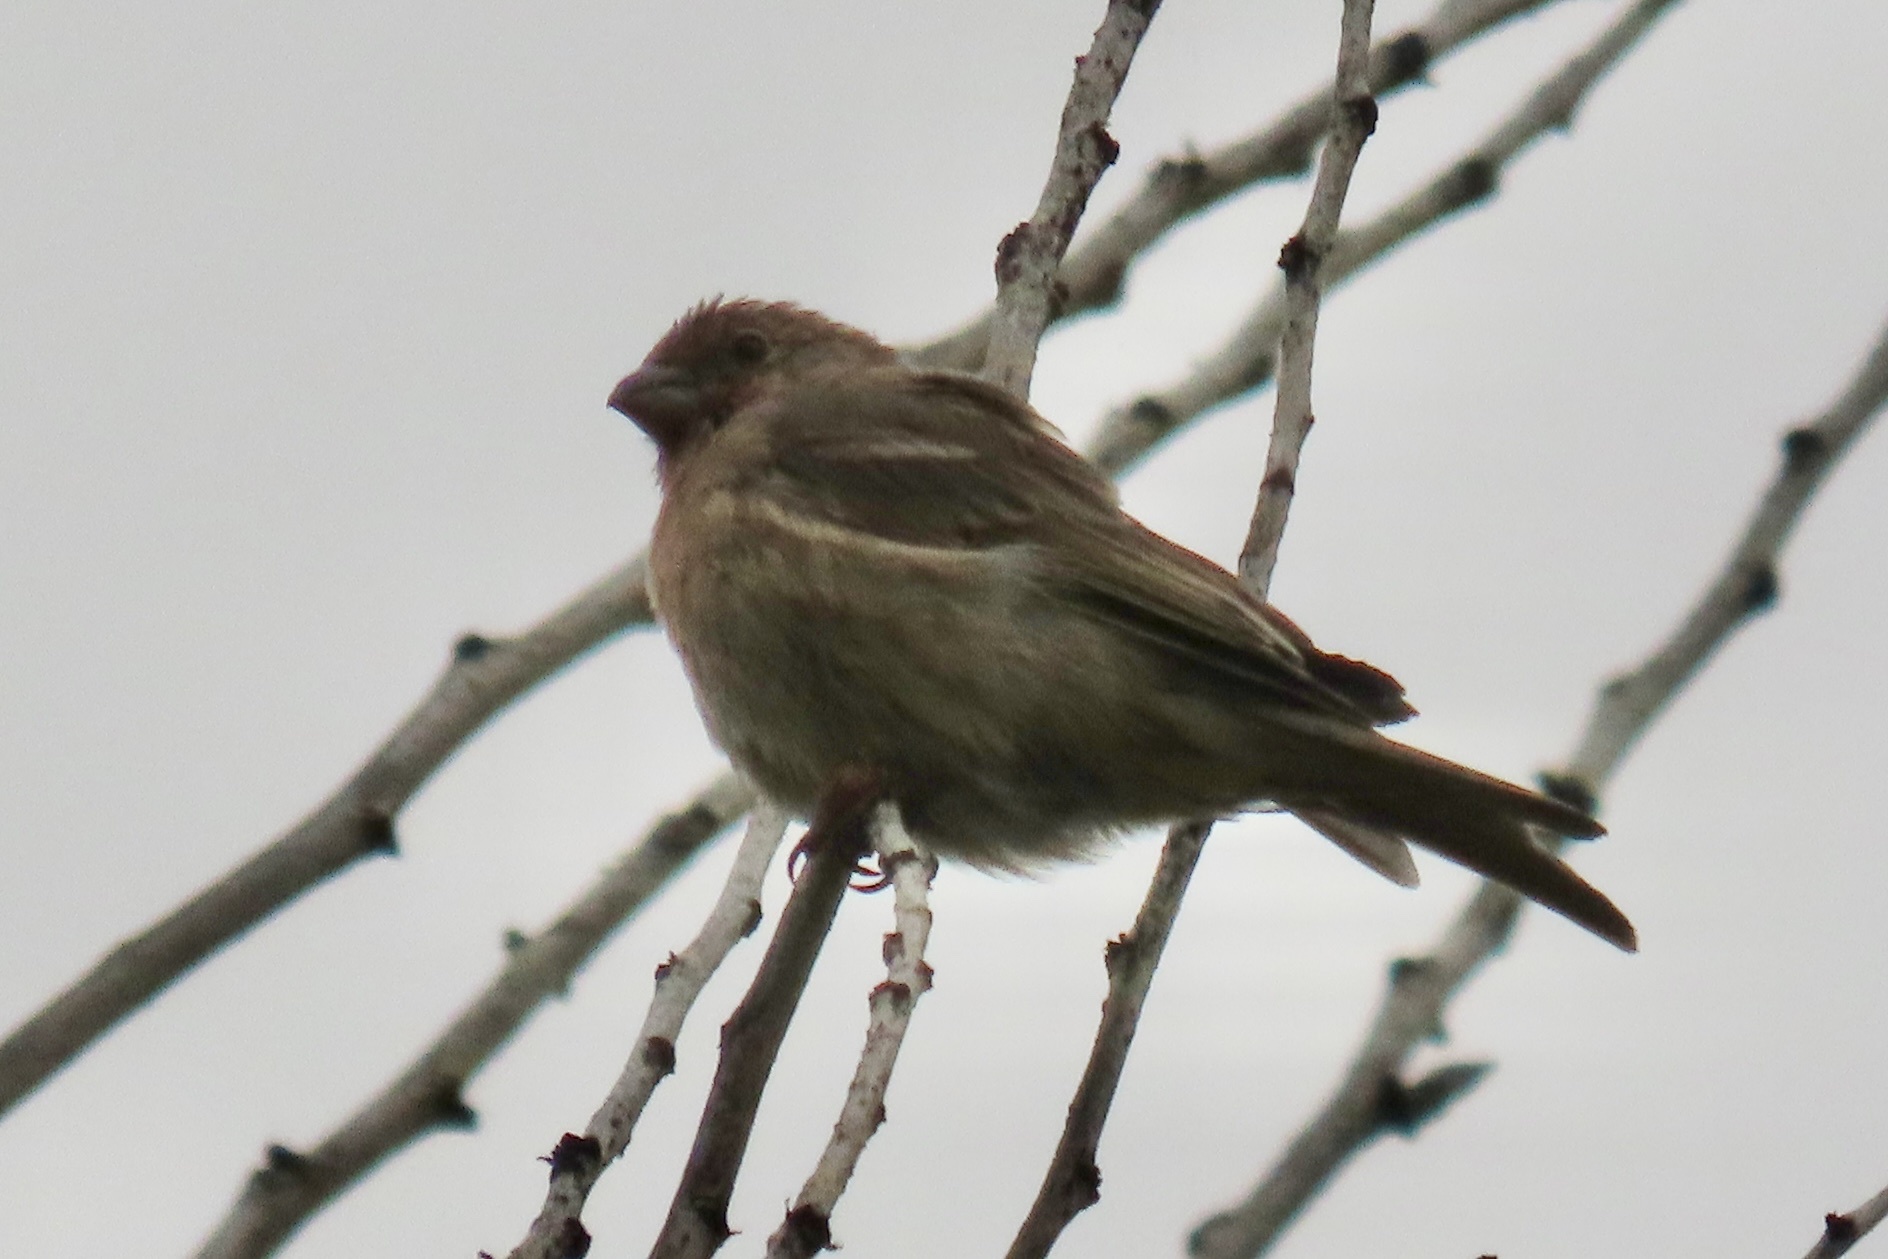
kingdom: Animalia
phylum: Chordata
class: Aves
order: Passeriformes
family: Fringillidae
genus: Haemorhous
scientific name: Haemorhous mexicanus
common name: House finch
